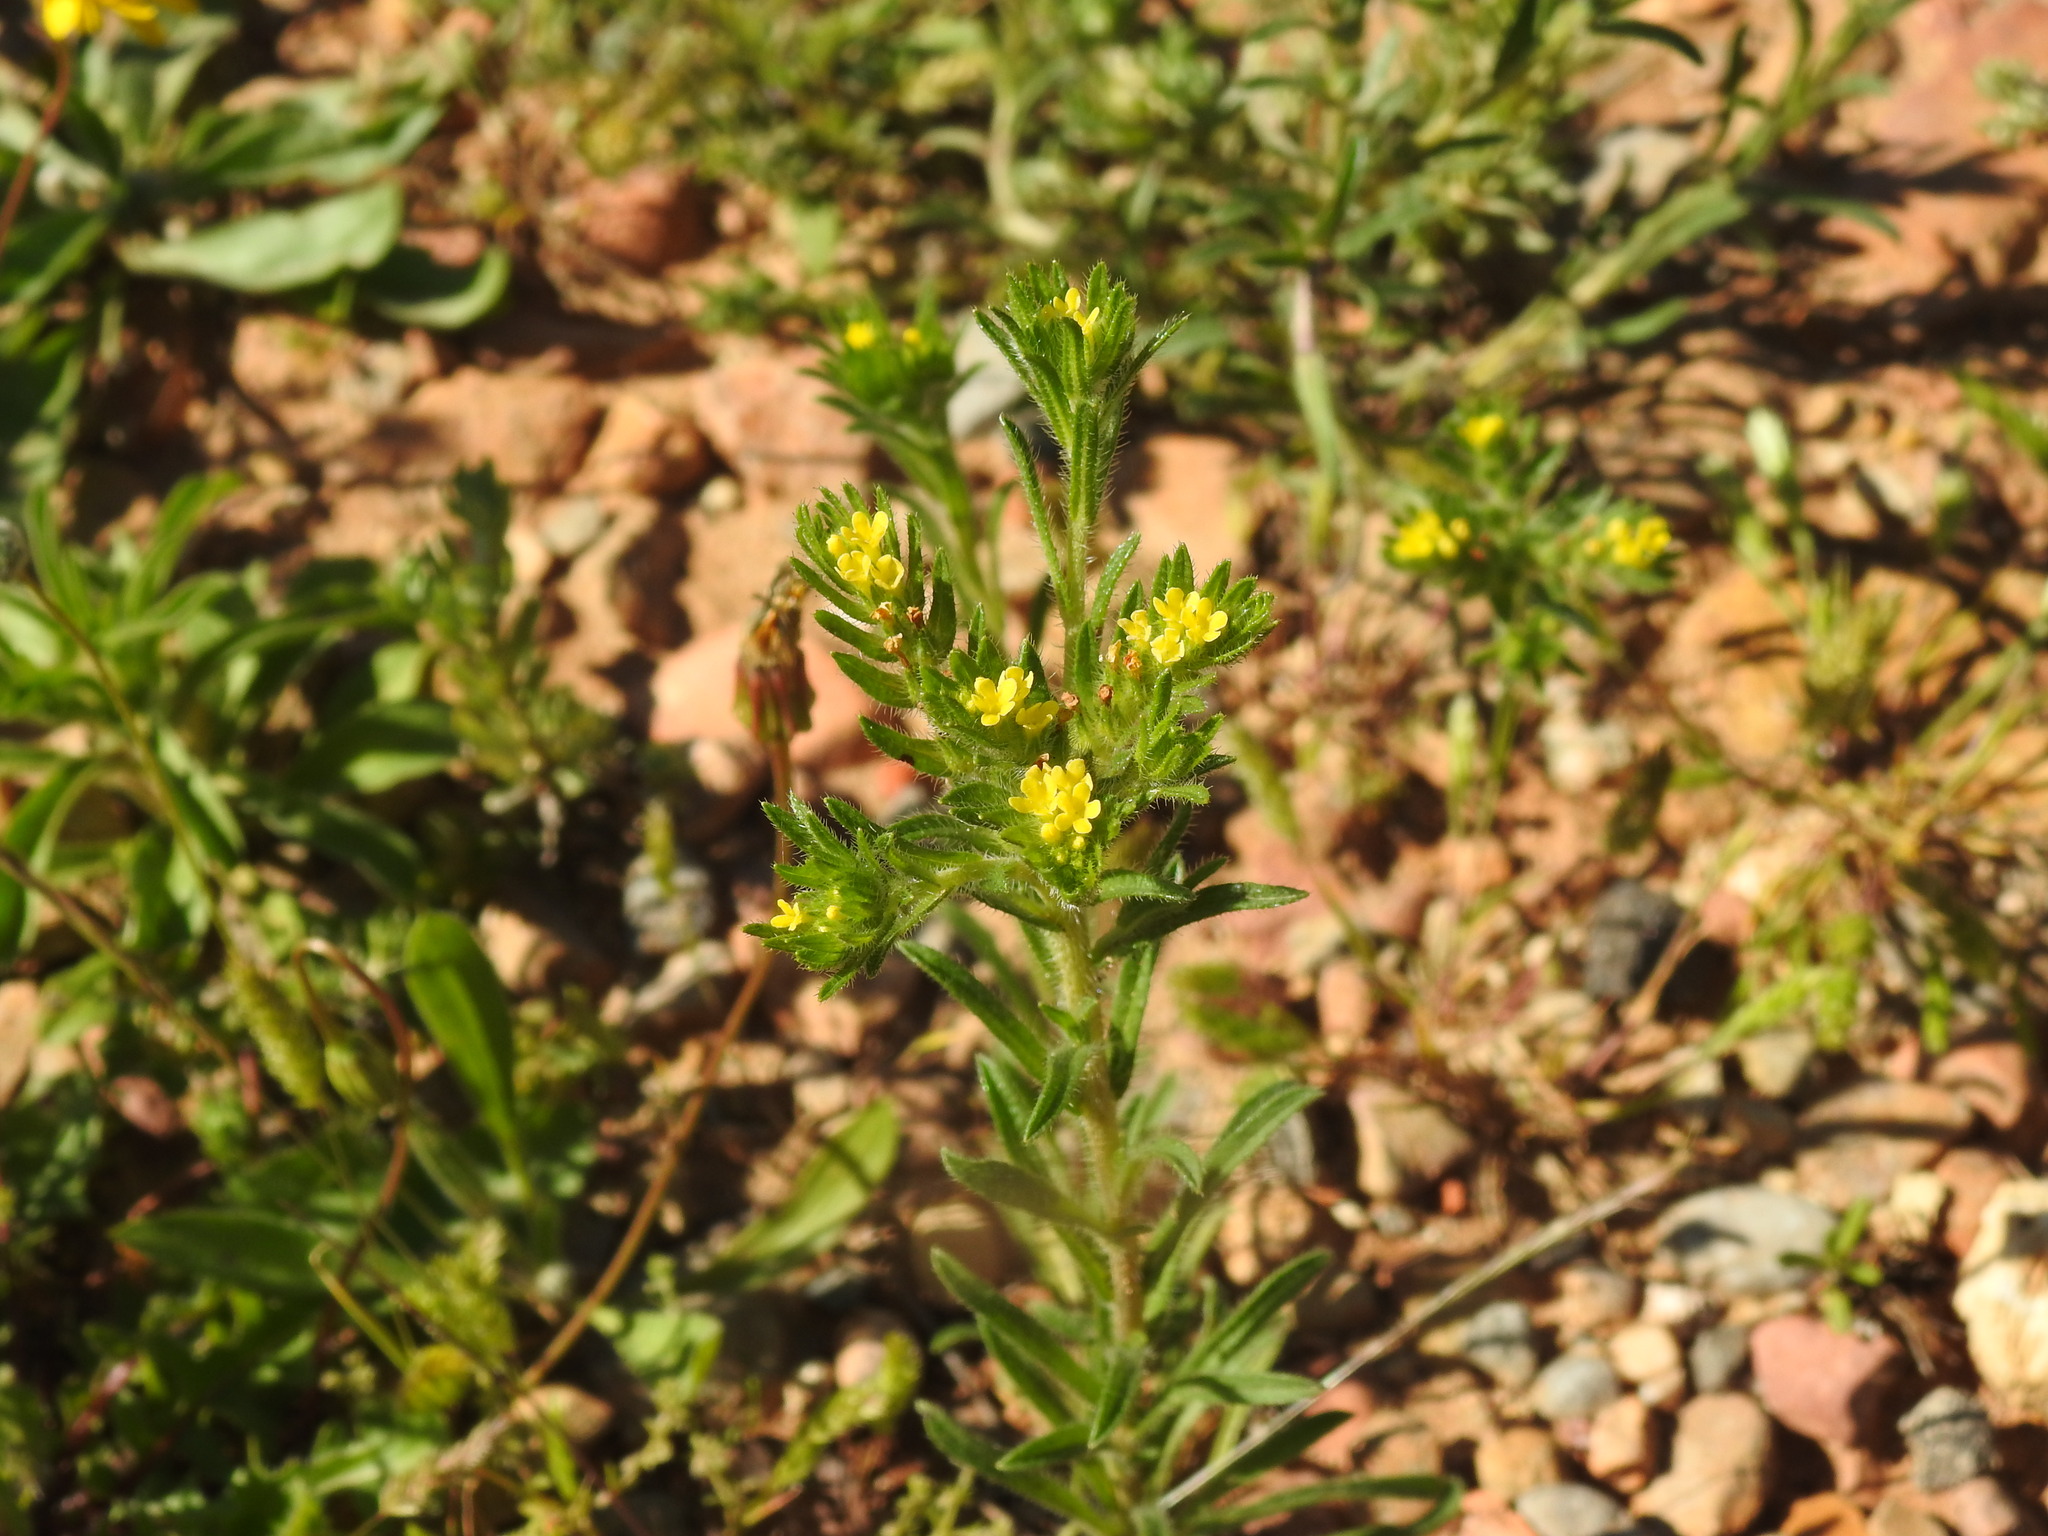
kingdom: Plantae
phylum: Tracheophyta
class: Magnoliopsida
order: Boraginales
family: Boraginaceae
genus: Neatostema
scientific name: Neatostema apulum
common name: Hairy sheepweed
